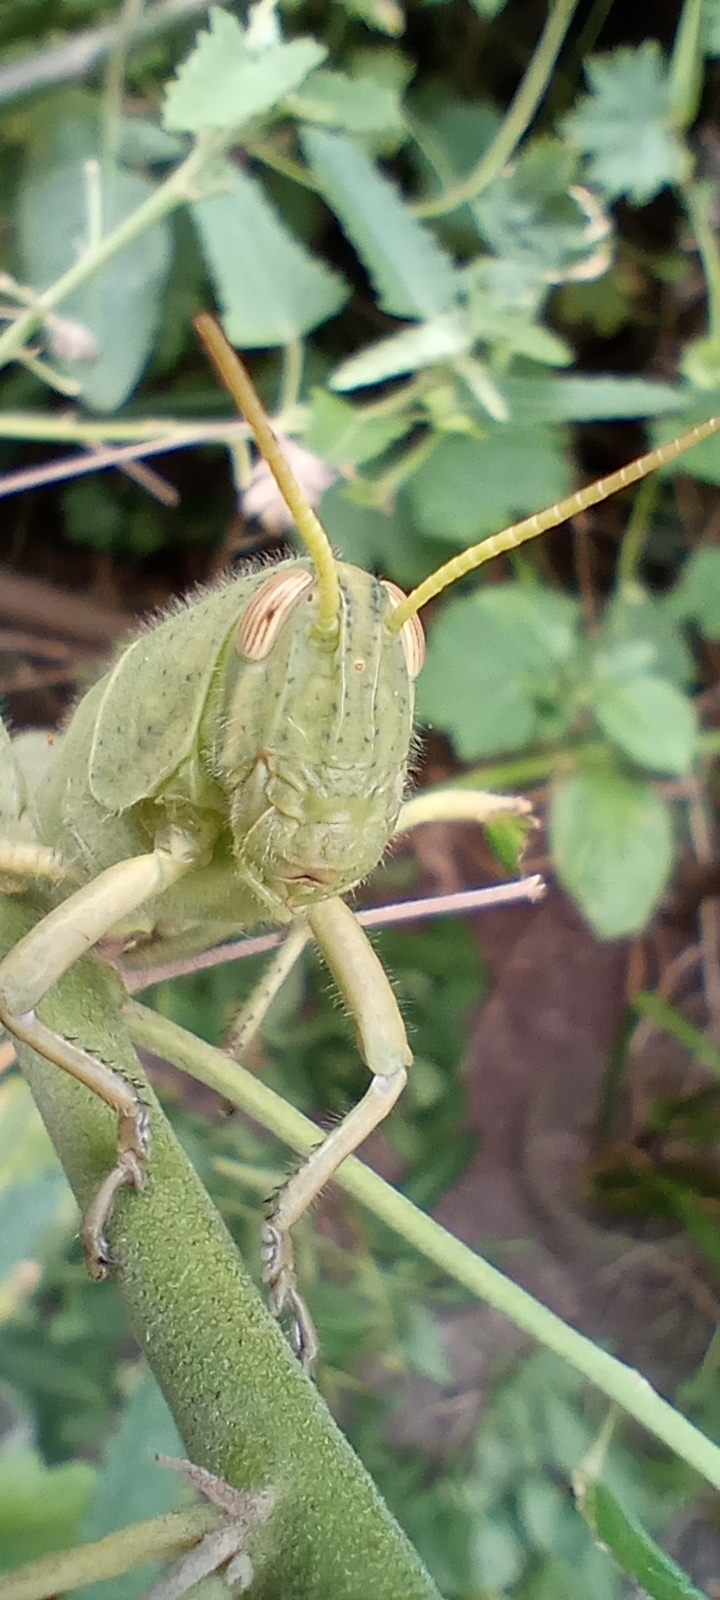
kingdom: Animalia
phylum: Arthropoda
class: Insecta
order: Orthoptera
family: Acrididae
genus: Schistocerca
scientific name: Schistocerca flavofasciata
